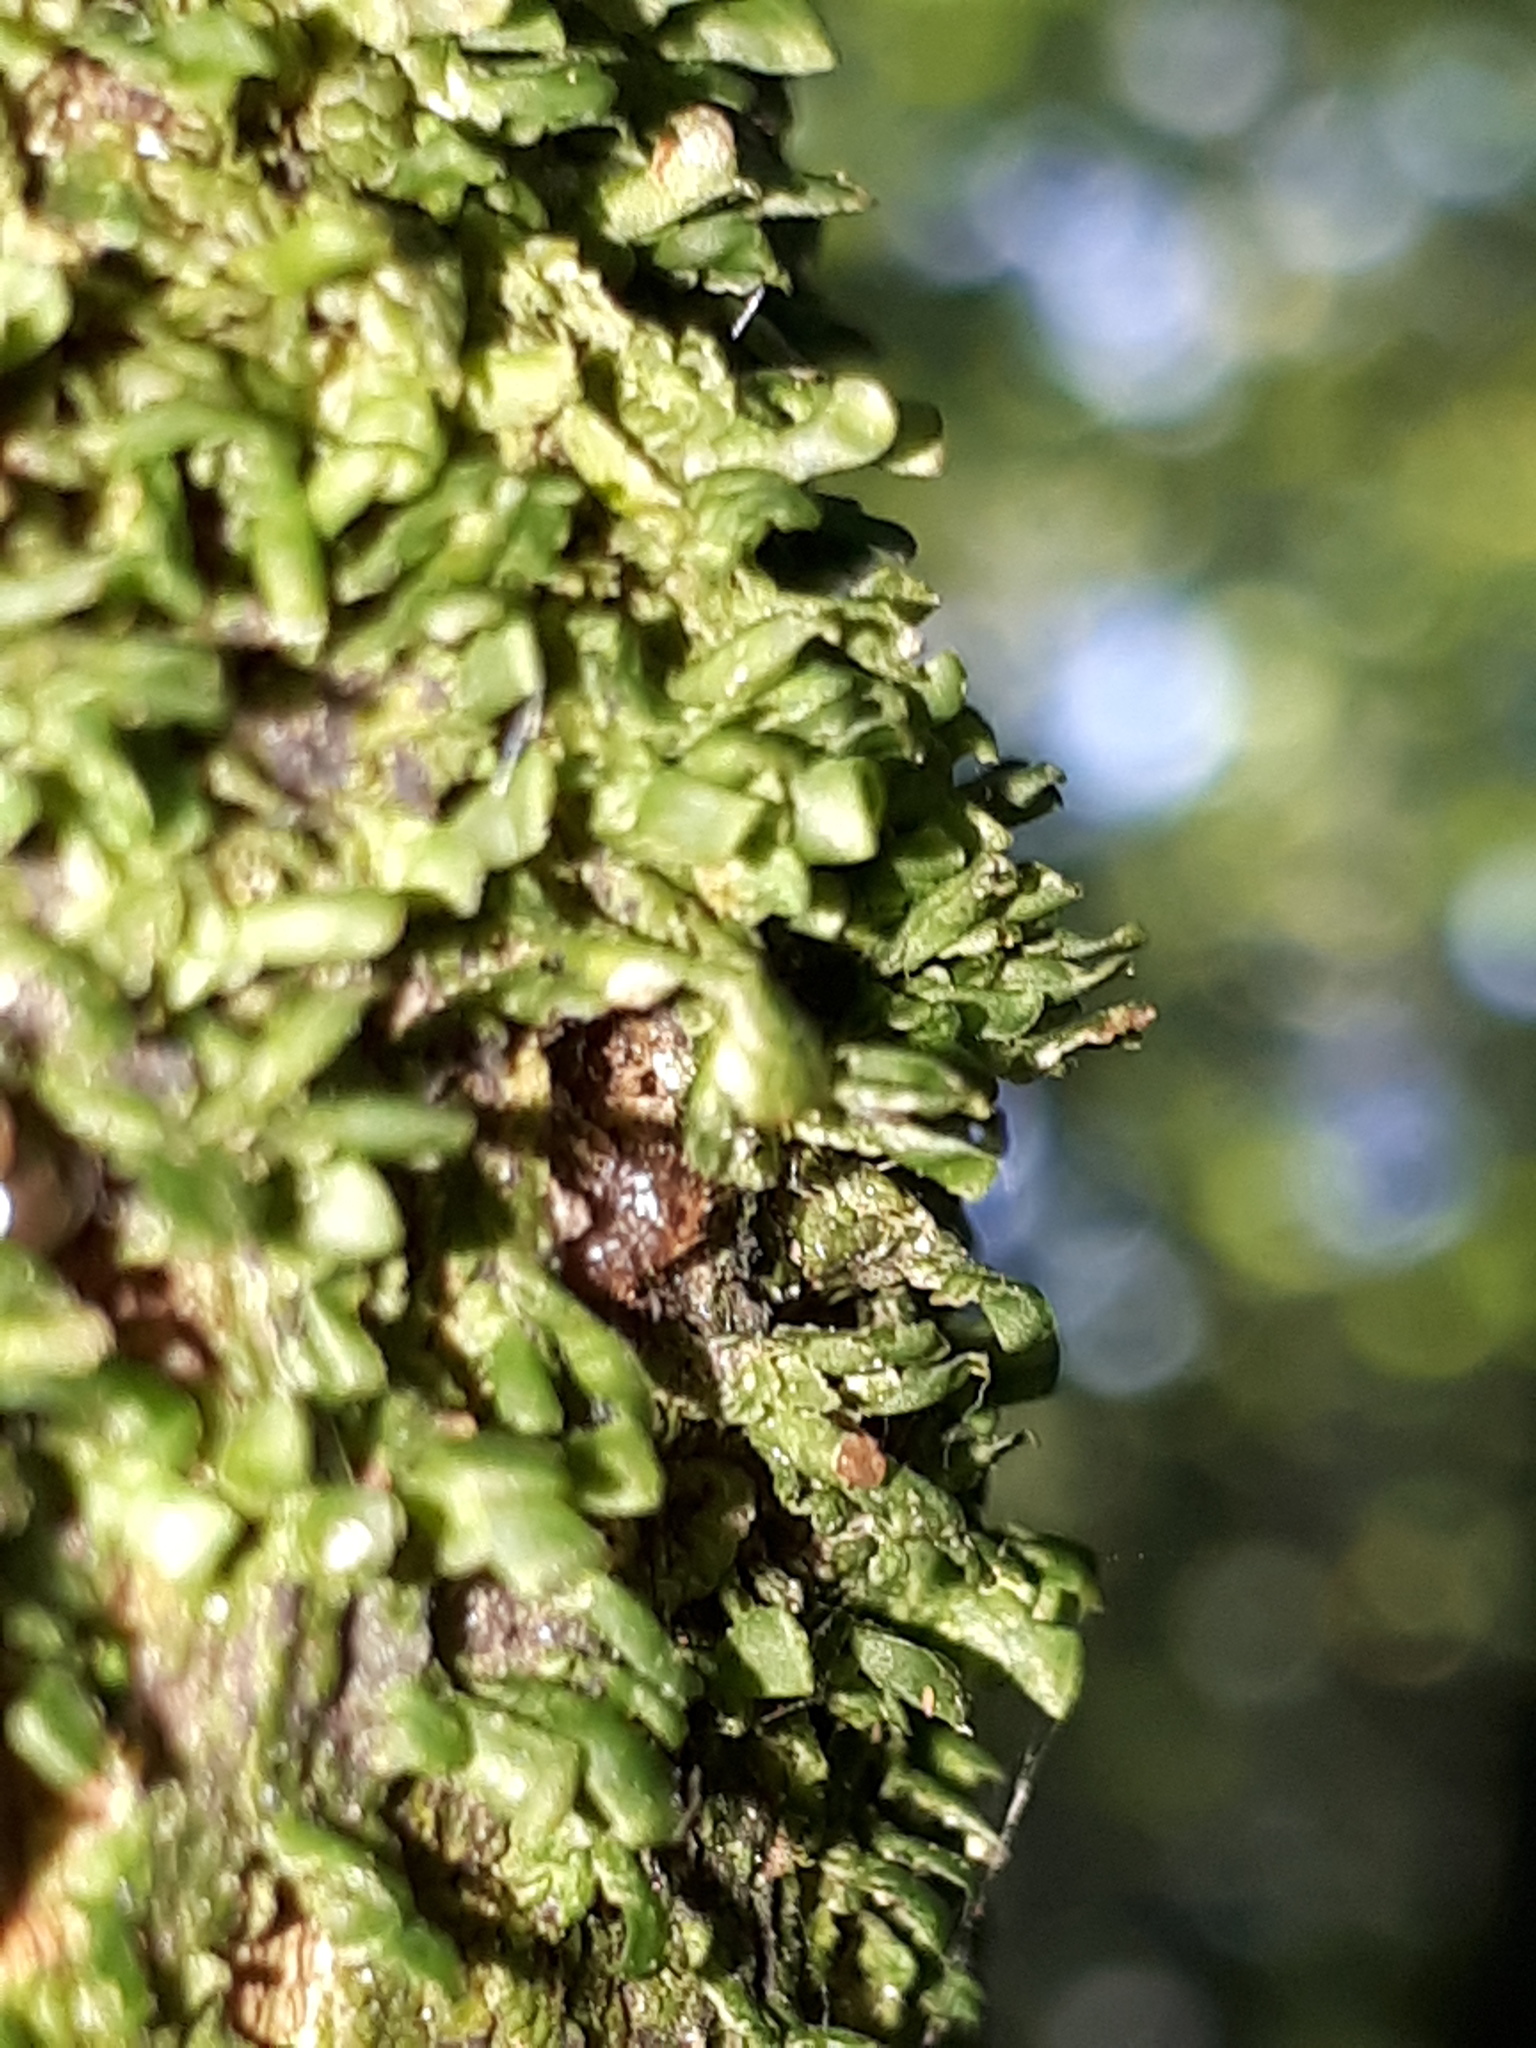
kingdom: Plantae
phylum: Marchantiophyta
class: Jungermanniopsida
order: Porellales
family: Radulaceae
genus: Radula
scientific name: Radula complanata
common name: Flat-leaved scalewort
